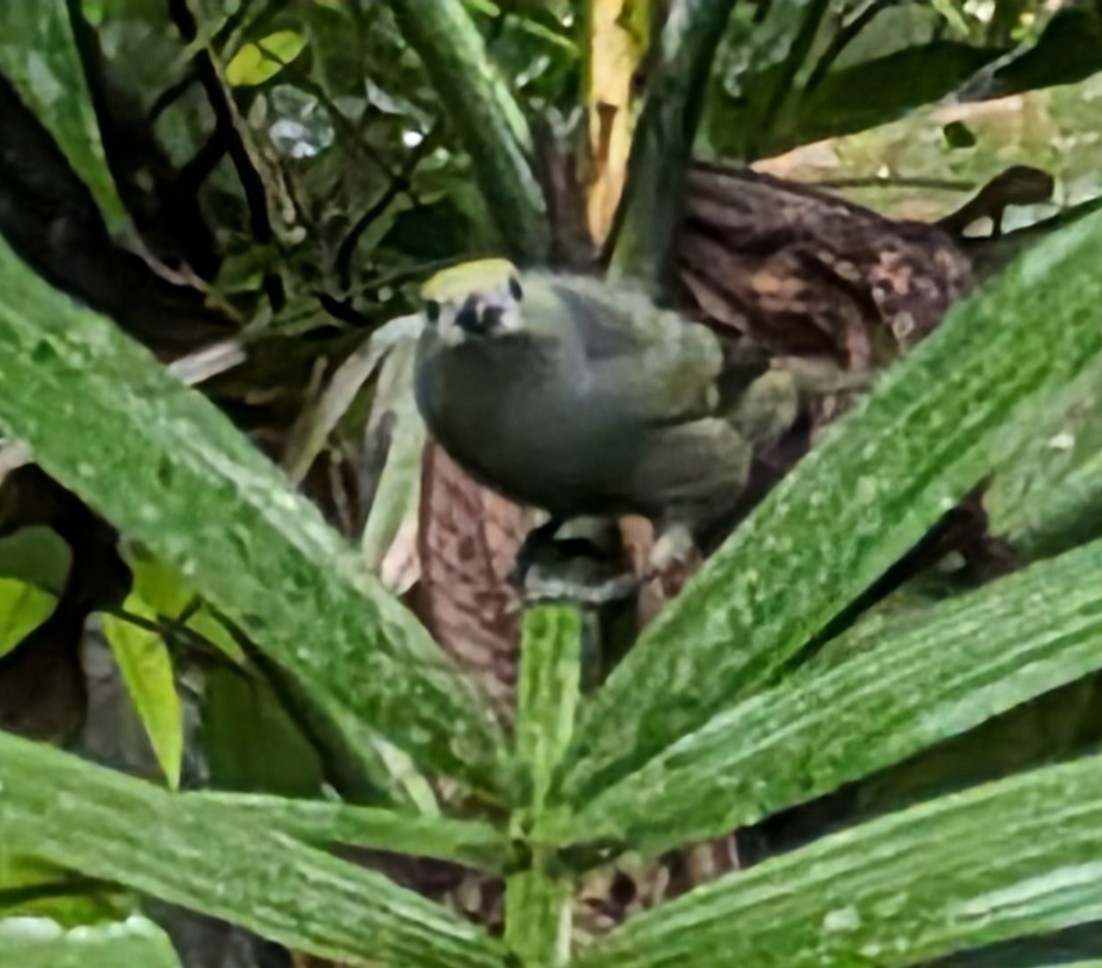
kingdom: Animalia
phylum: Chordata
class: Aves
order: Passeriformes
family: Thraupidae
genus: Thraupis
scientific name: Thraupis palmarum
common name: Palm tanager
